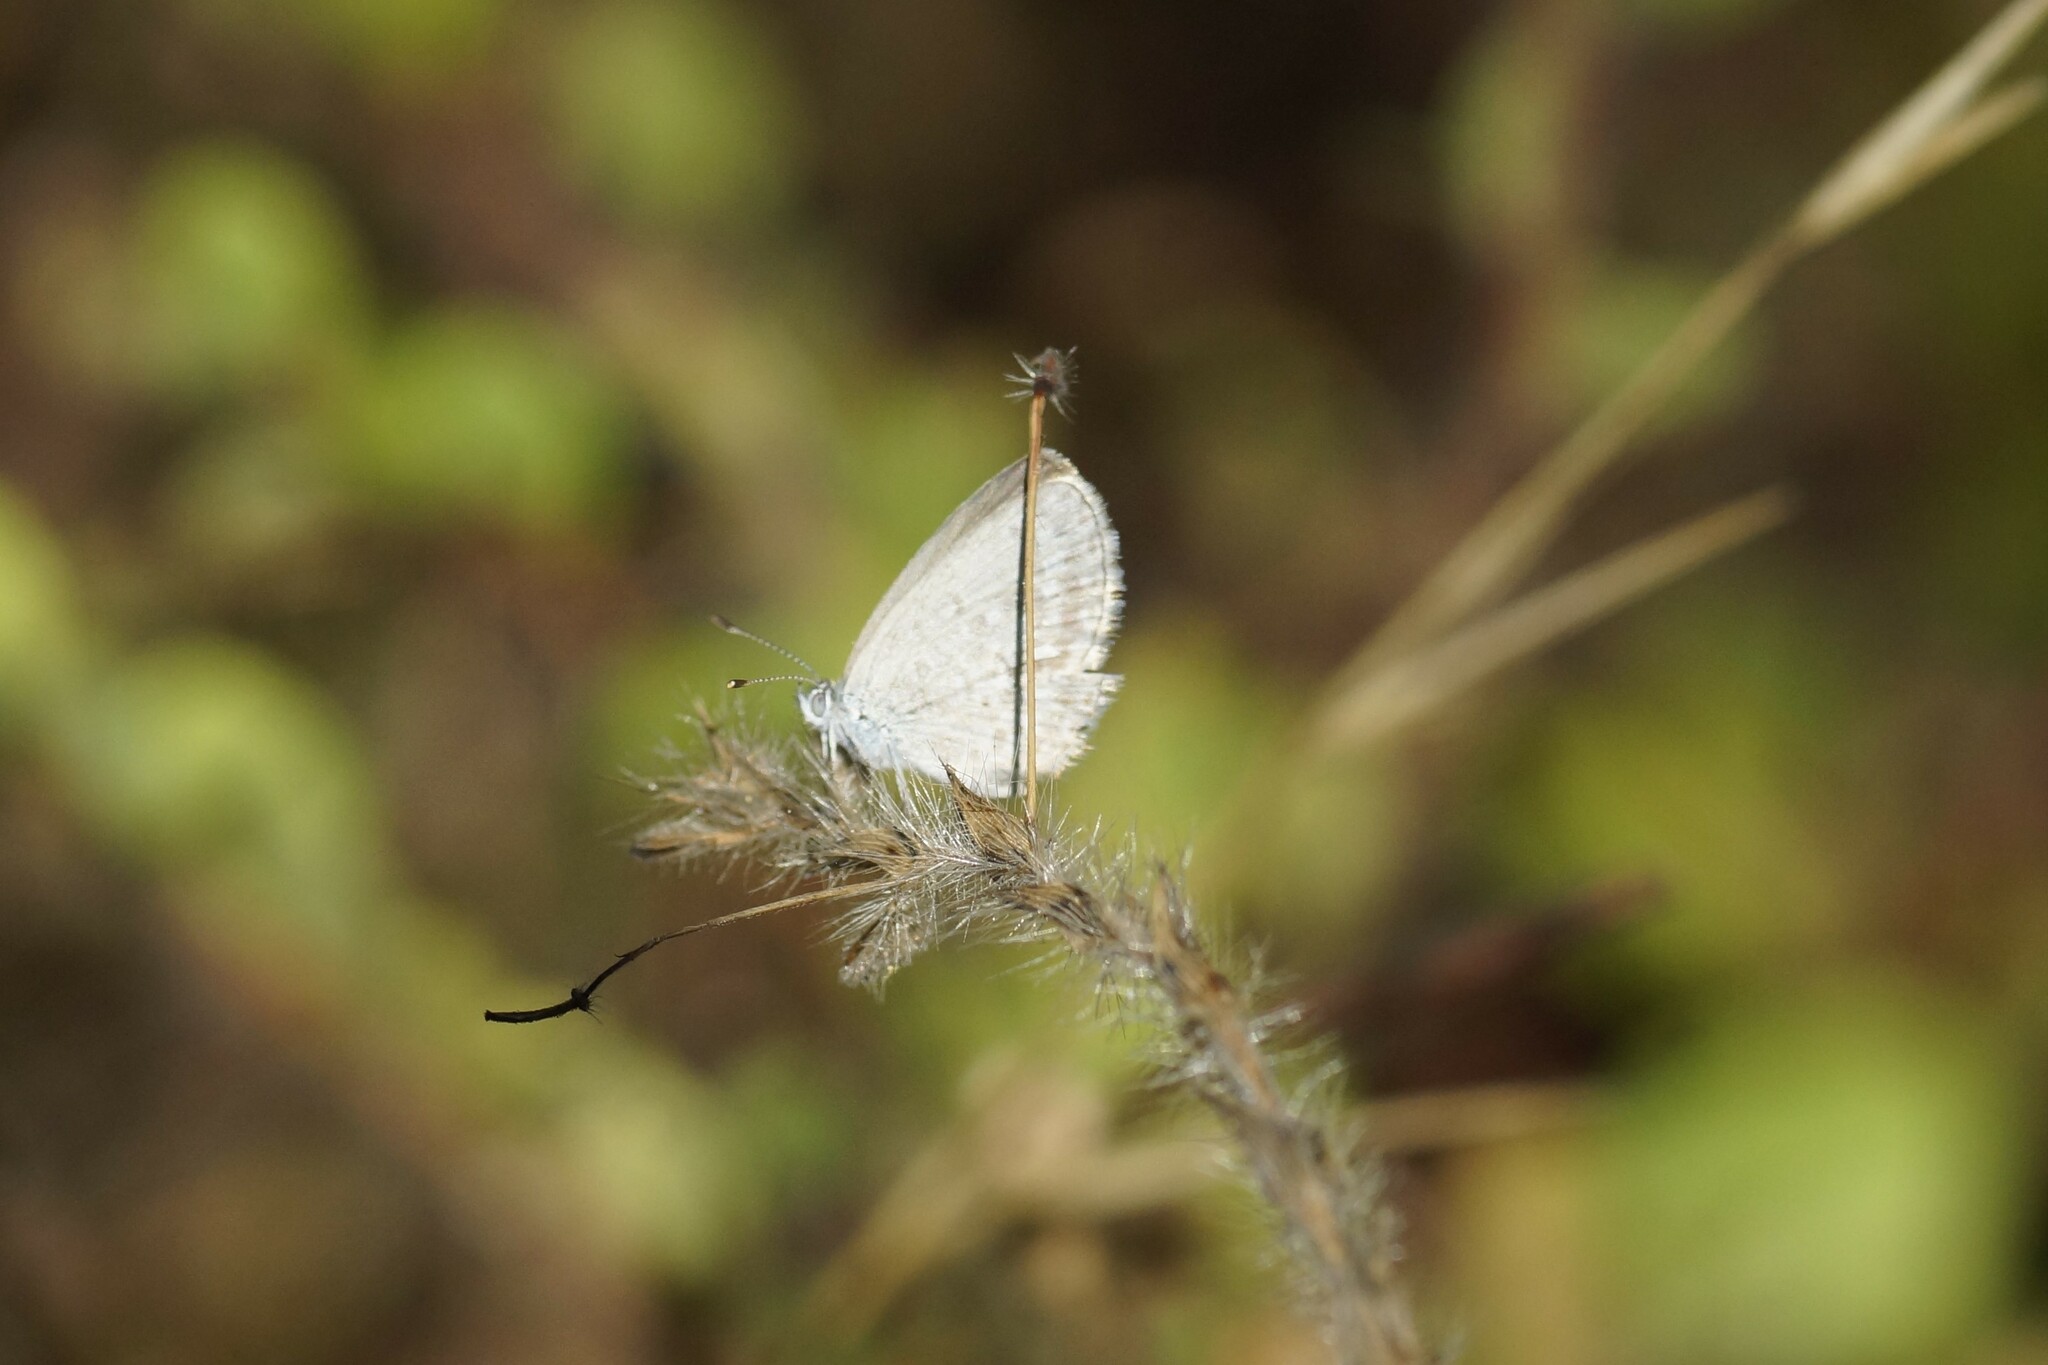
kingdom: Animalia
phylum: Arthropoda
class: Insecta
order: Lepidoptera
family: Lycaenidae
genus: Zizina
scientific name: Zizina otis
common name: Lesser grass blue
